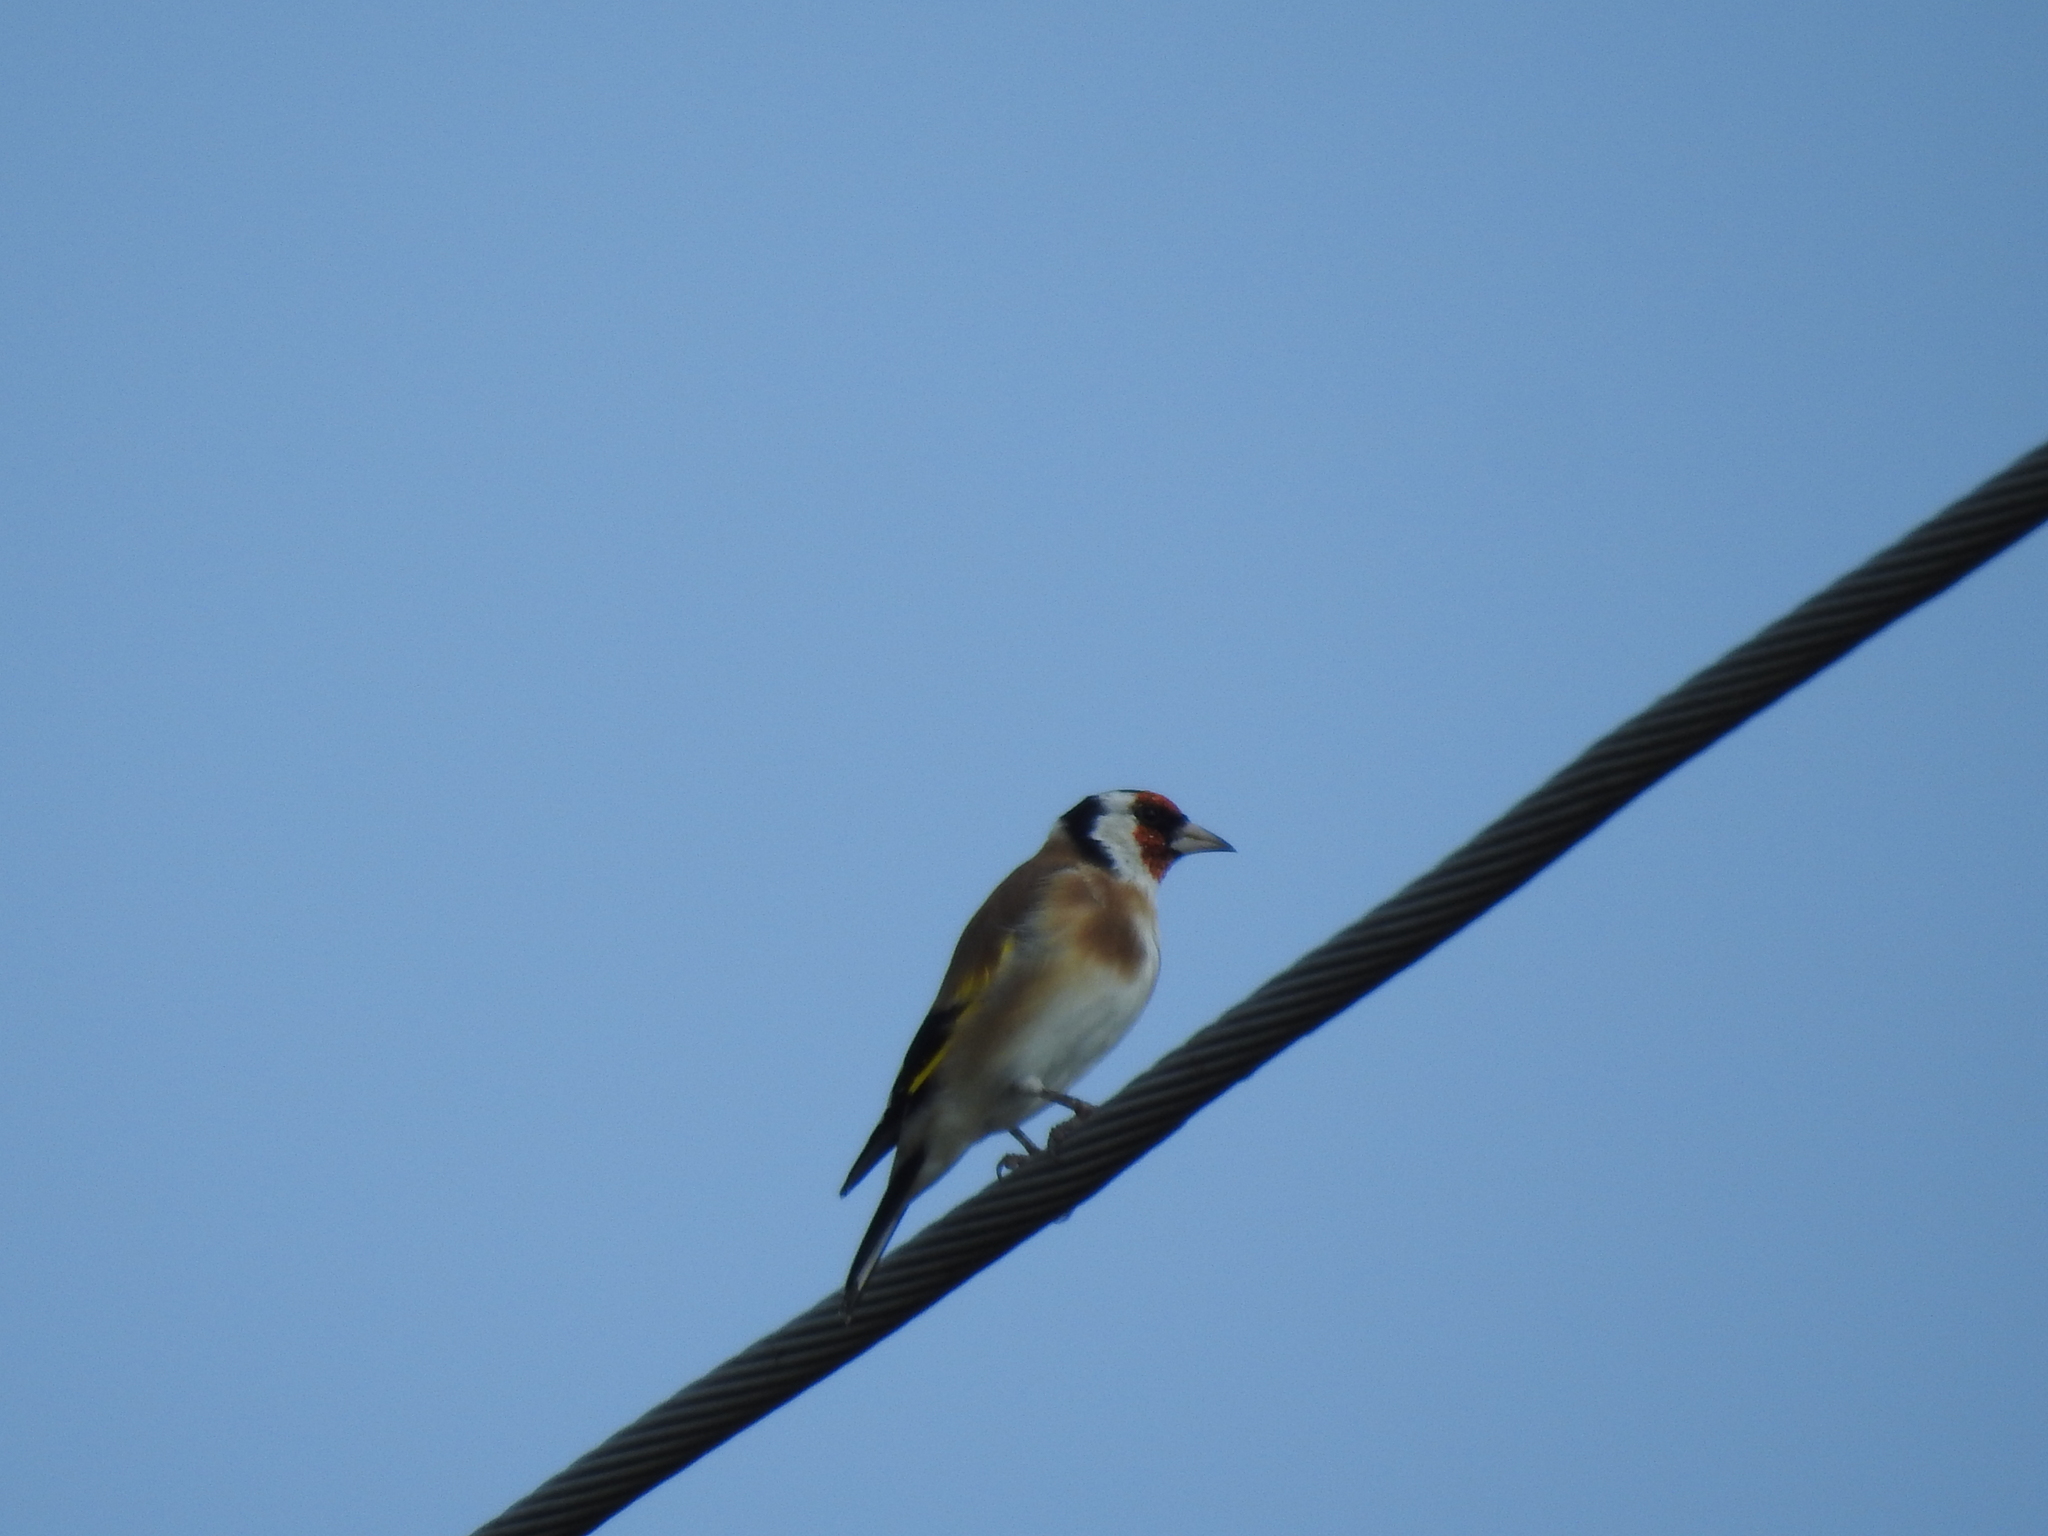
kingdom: Animalia
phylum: Chordata
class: Aves
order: Passeriformes
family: Fringillidae
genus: Carduelis
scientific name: Carduelis carduelis
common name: European goldfinch
